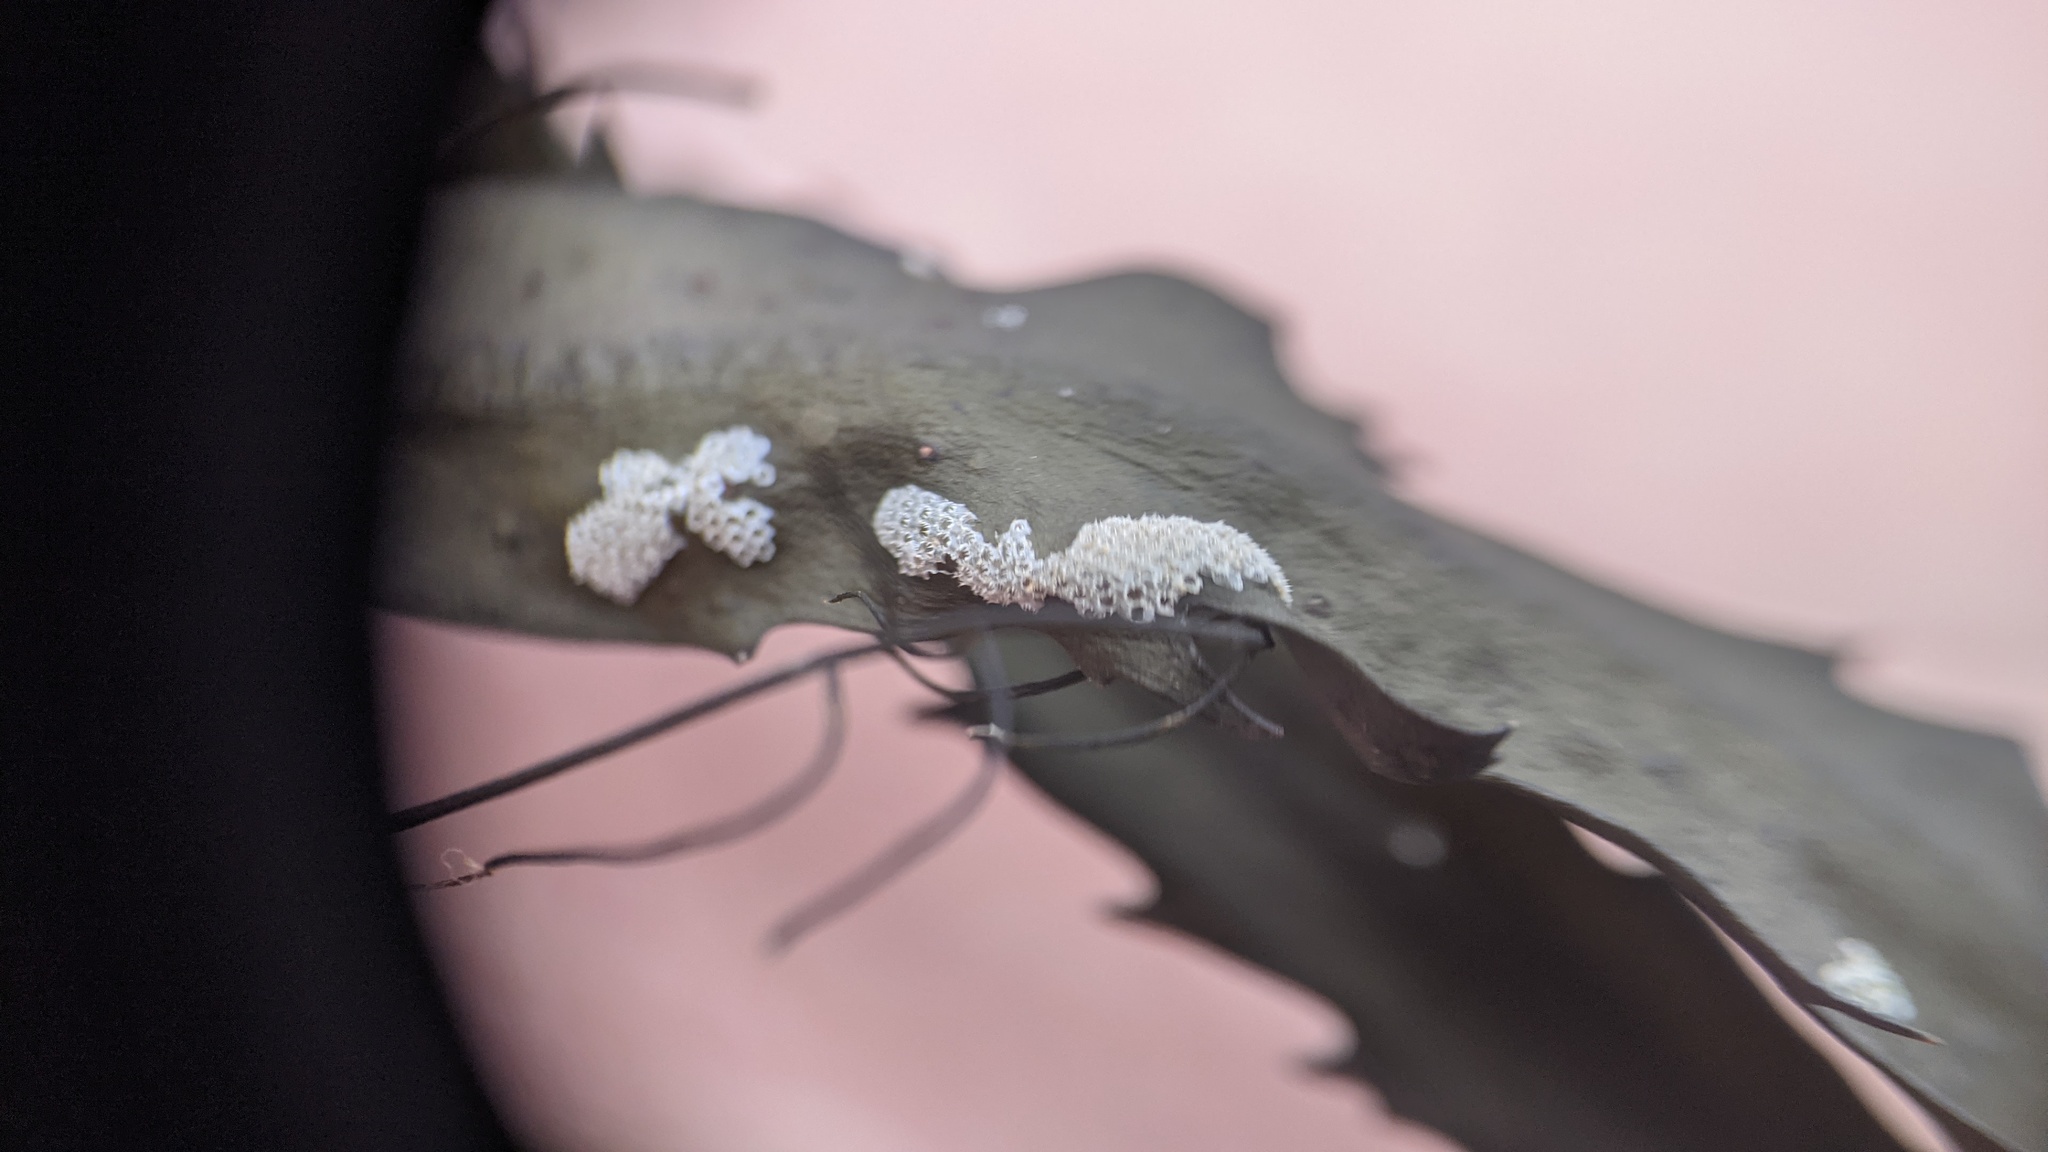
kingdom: Animalia
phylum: Bryozoa
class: Gymnolaemata
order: Cheilostomatida
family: Electridae
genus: Electra
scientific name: Electra pilosa
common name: Hairy sea-mat
